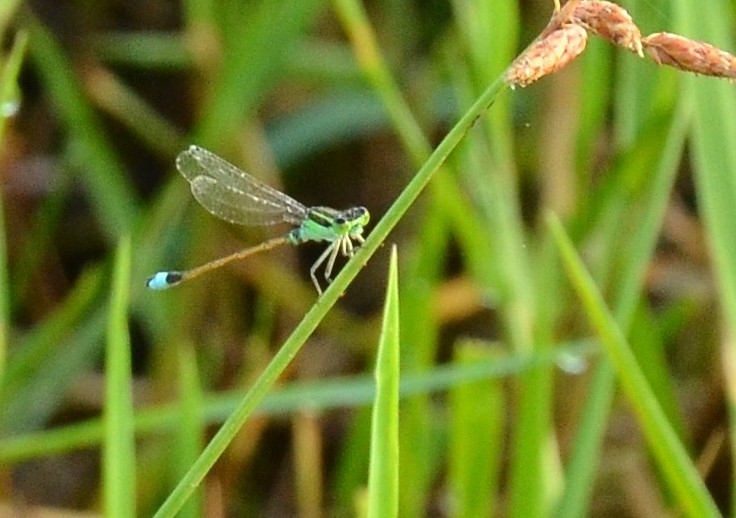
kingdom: Animalia
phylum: Arthropoda
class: Insecta
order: Odonata
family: Coenagrionidae
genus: Ischnura
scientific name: Ischnura senegalensis
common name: Tropical bluetail
